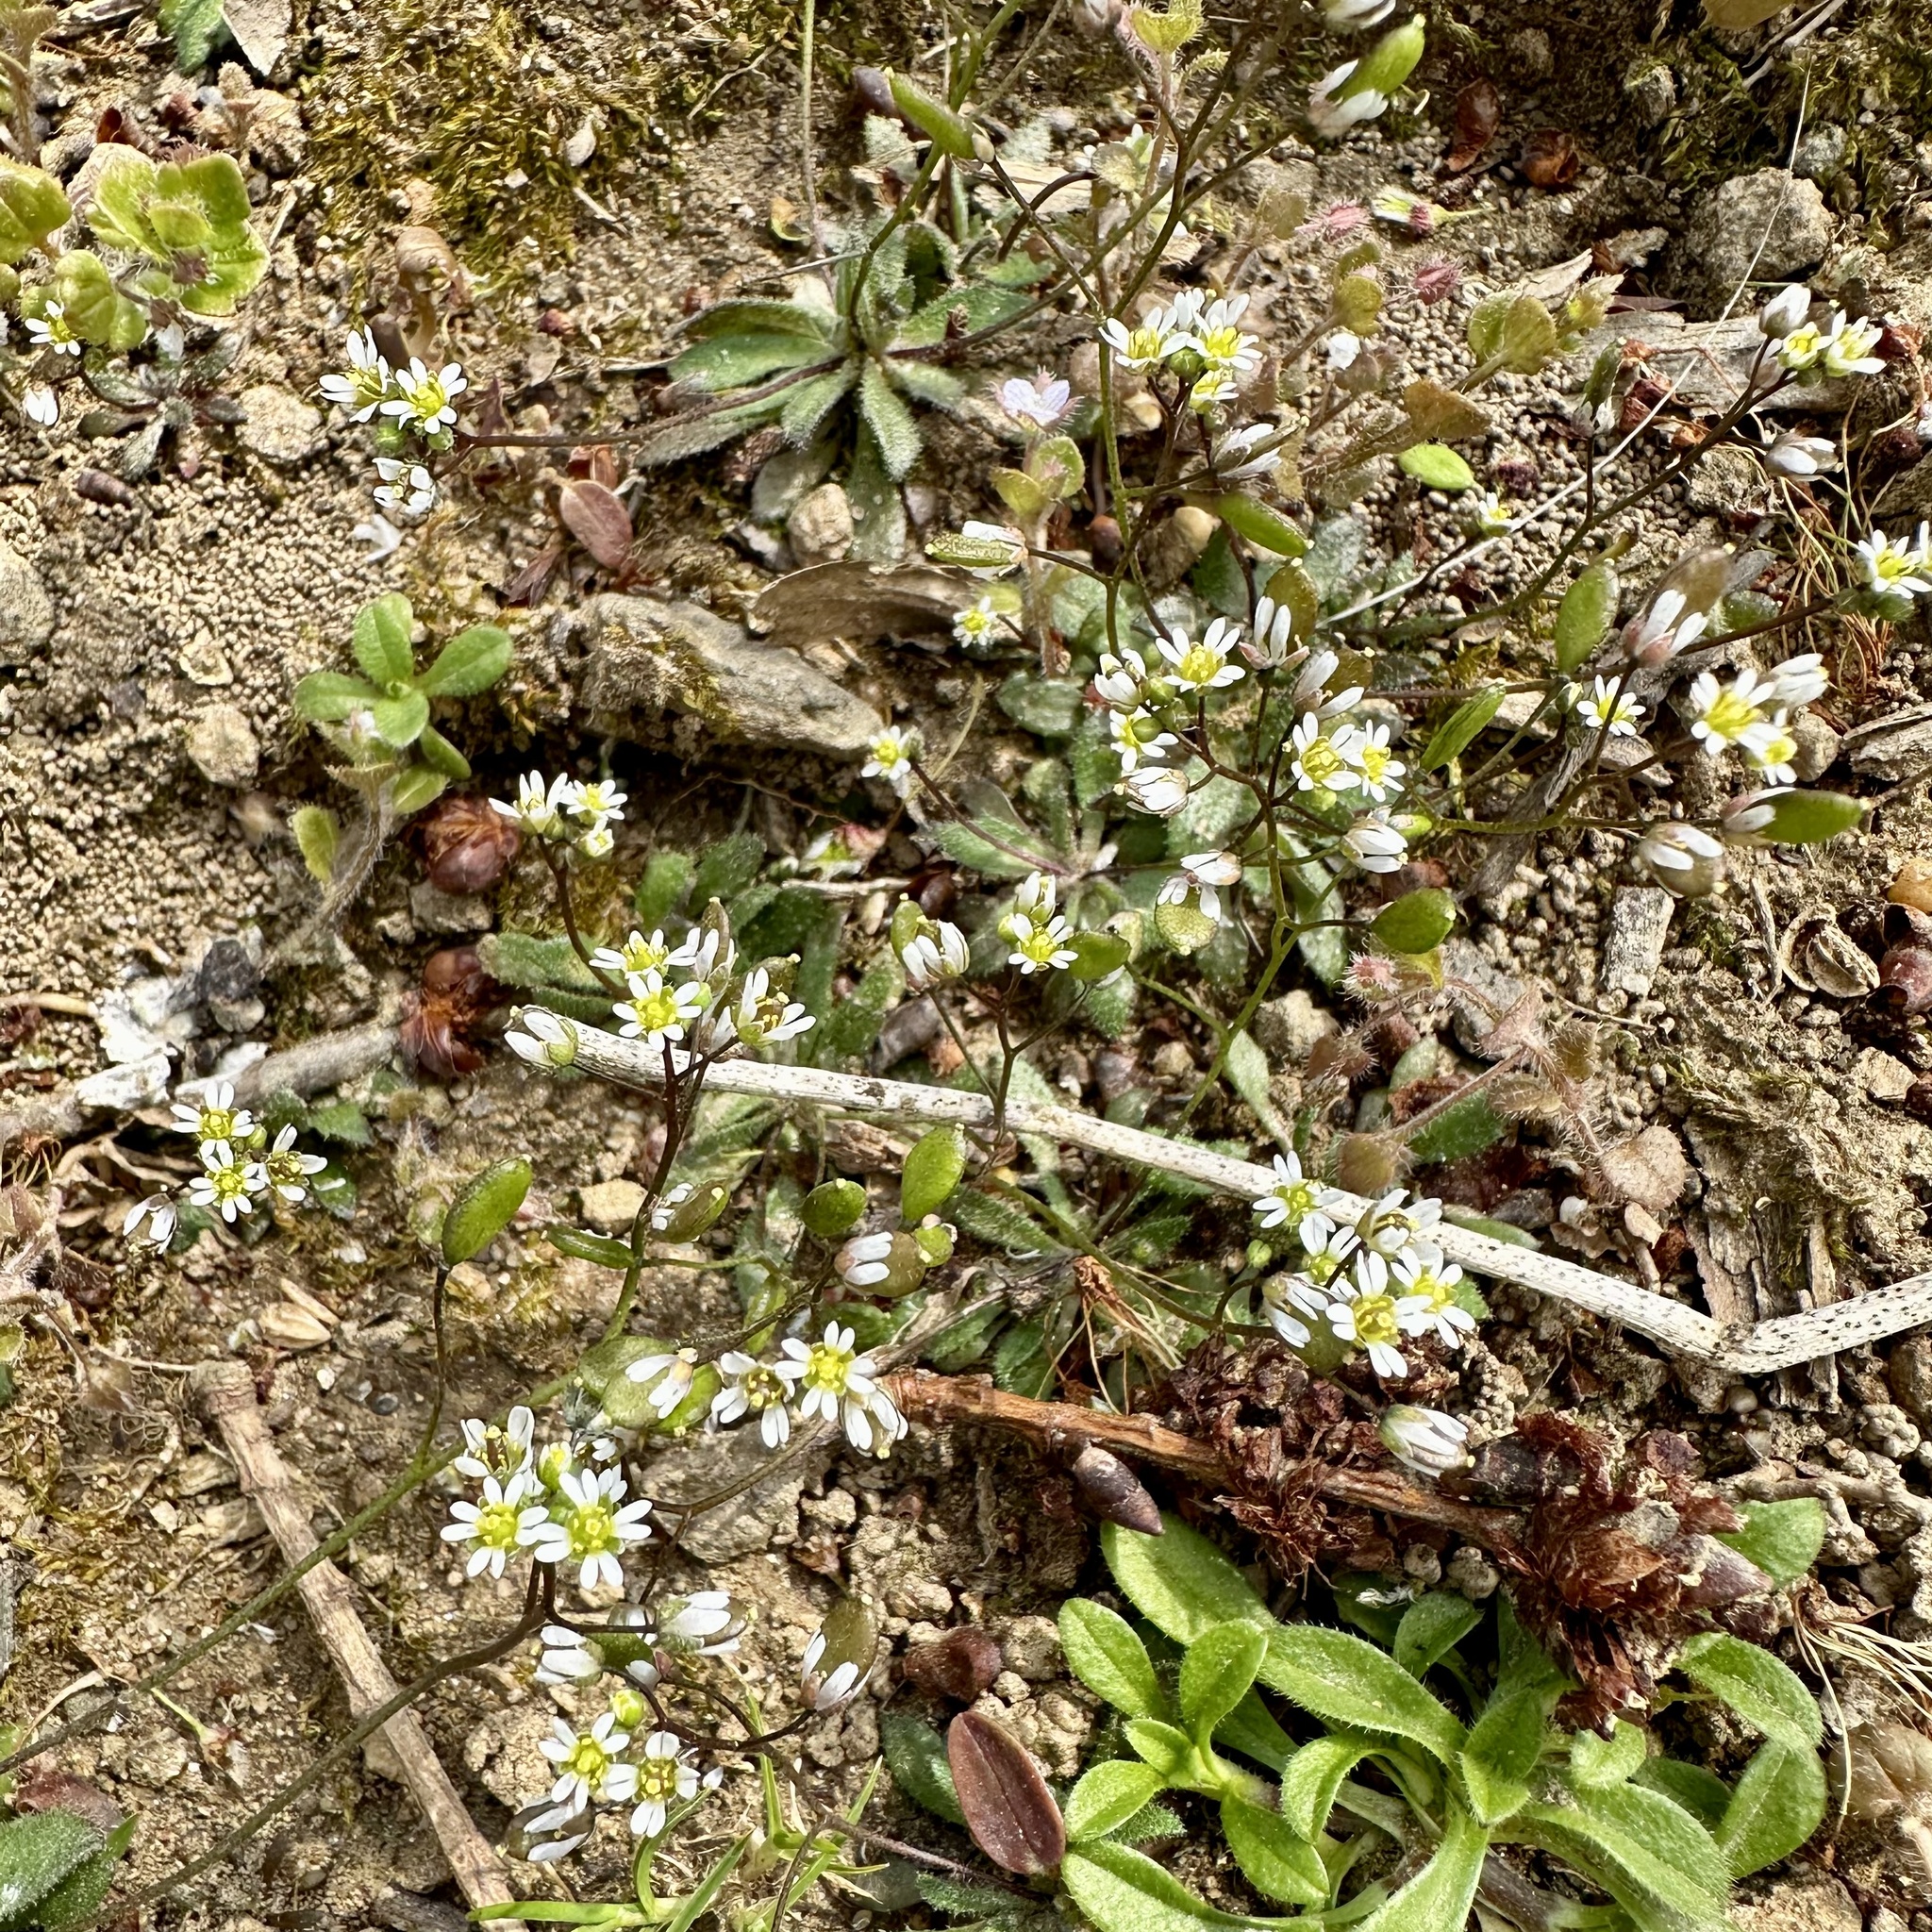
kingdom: Plantae
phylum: Tracheophyta
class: Magnoliopsida
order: Brassicales
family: Brassicaceae
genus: Draba
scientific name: Draba verna
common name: Spring draba
